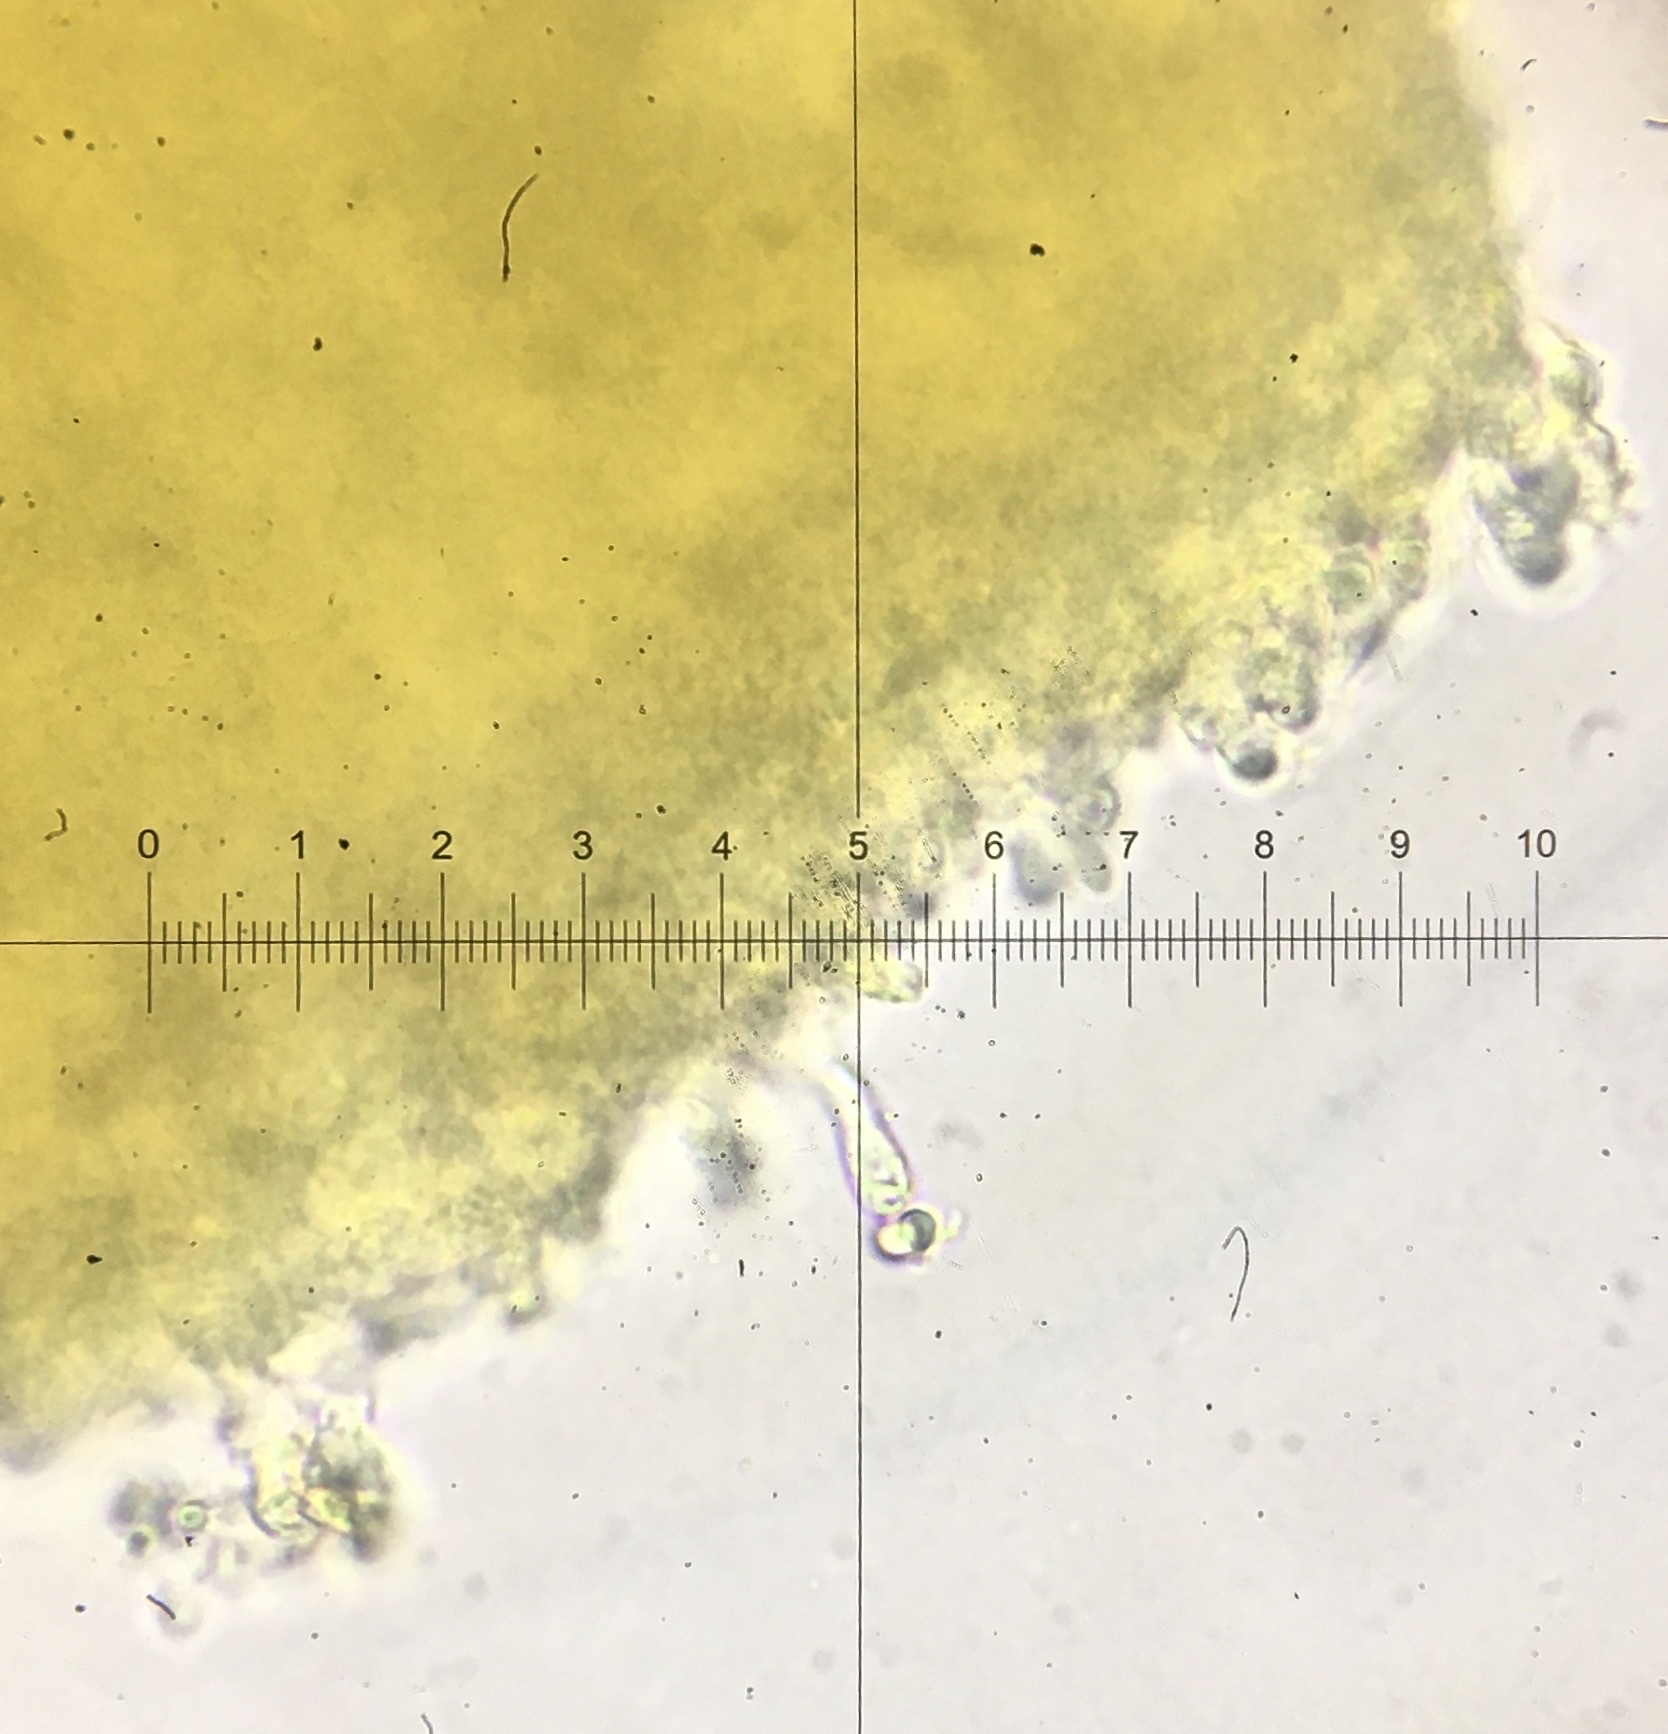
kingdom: Fungi
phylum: Basidiomycota
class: Agaricomycetes
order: Agaricales
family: Tricholomataceae
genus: Tricholomopsis
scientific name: Tricholomopsis aurea
